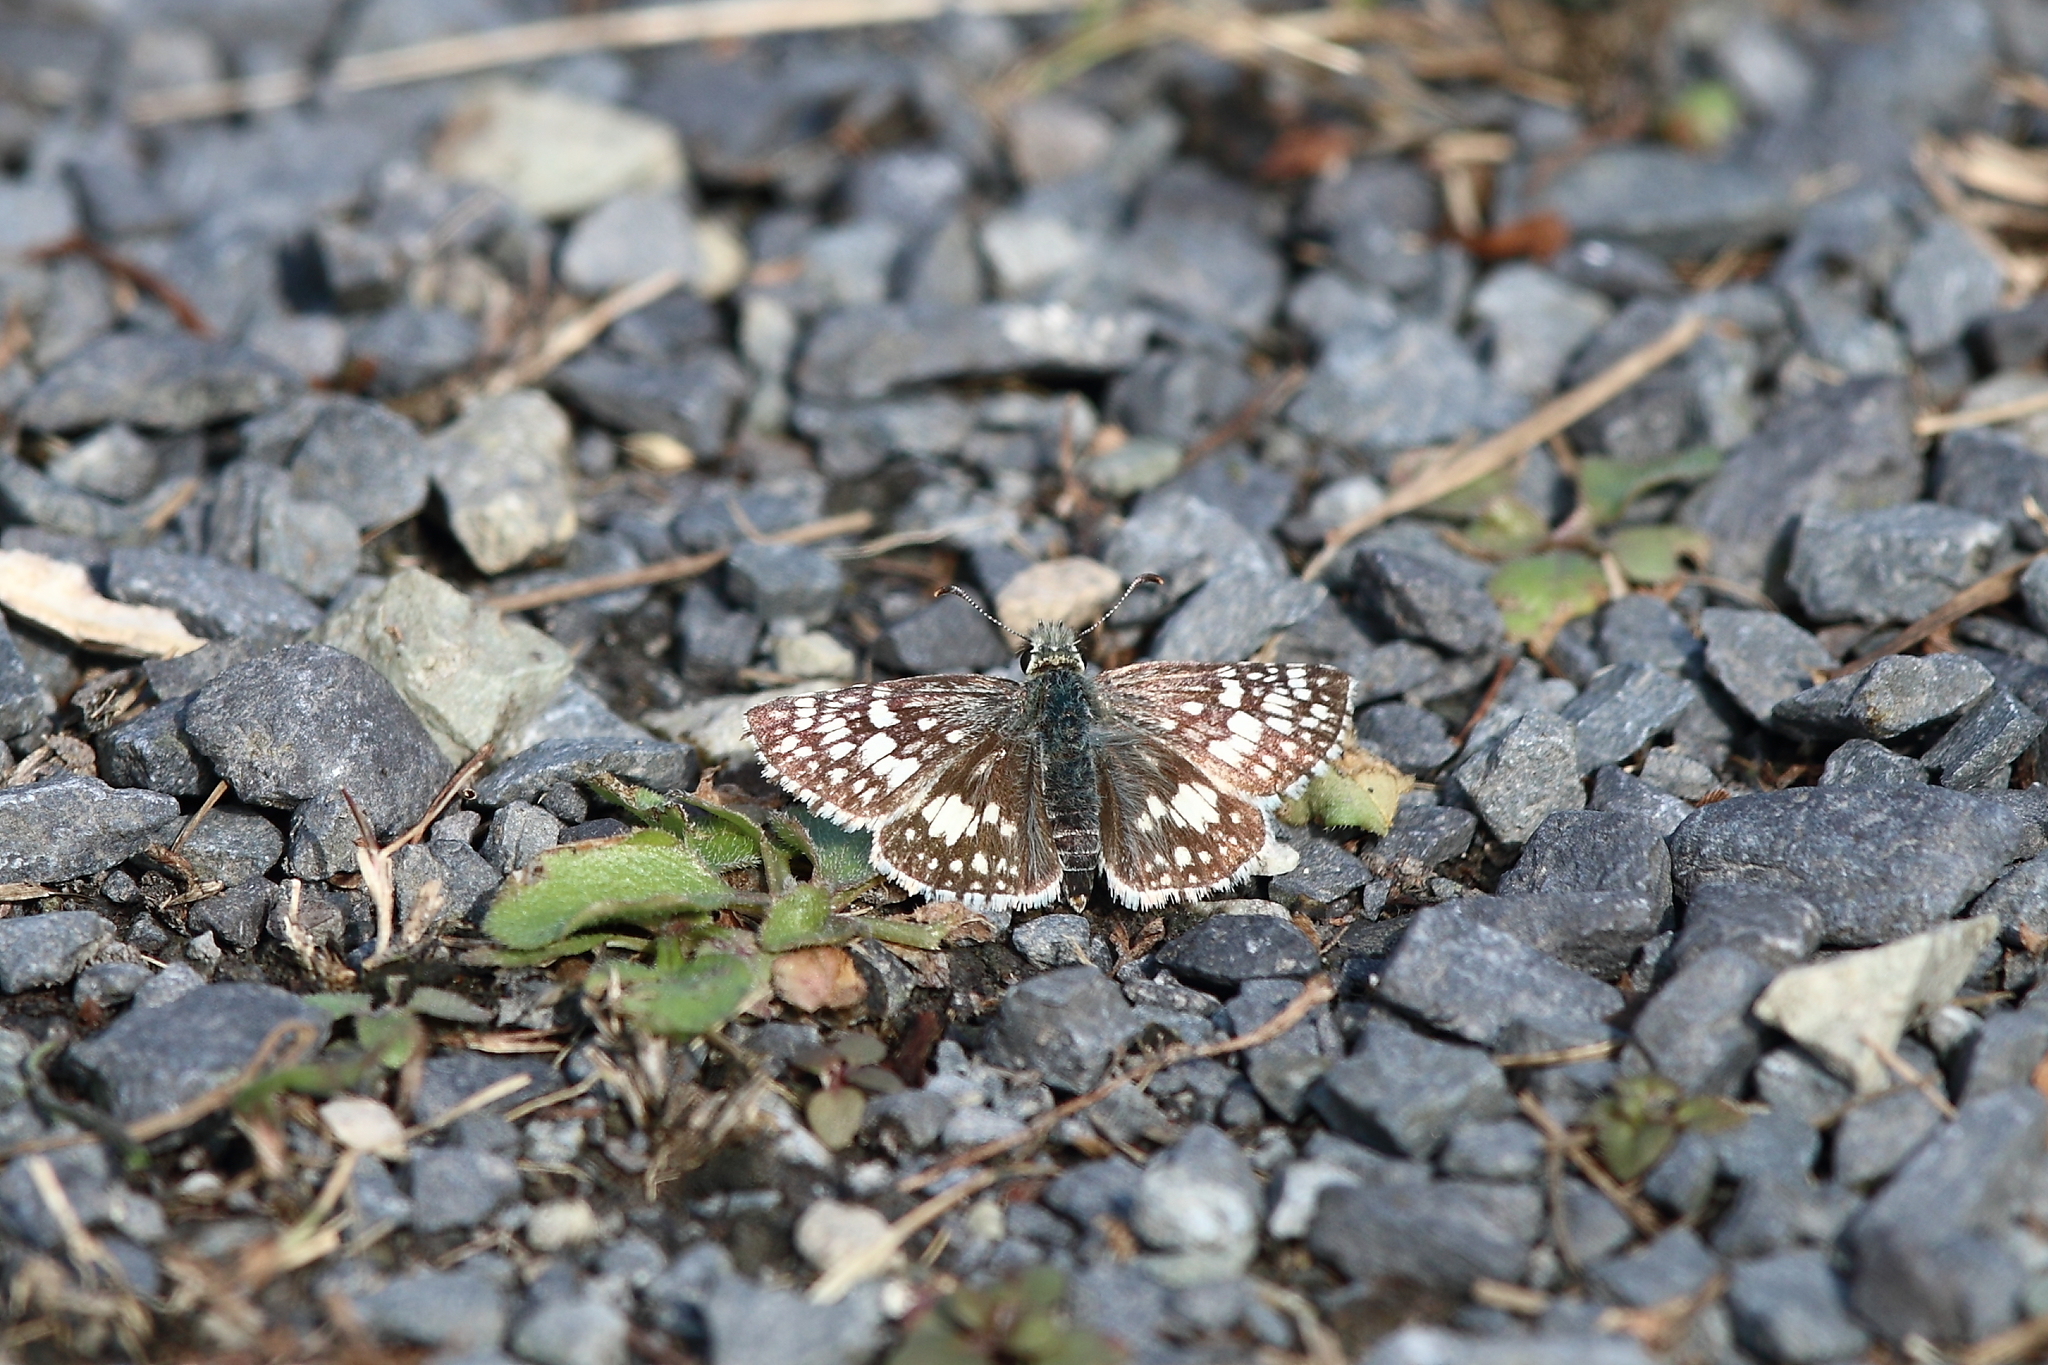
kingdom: Animalia
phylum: Arthropoda
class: Insecta
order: Lepidoptera
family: Hesperiidae
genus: Burnsius
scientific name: Burnsius communis
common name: Common checkered-skipper
